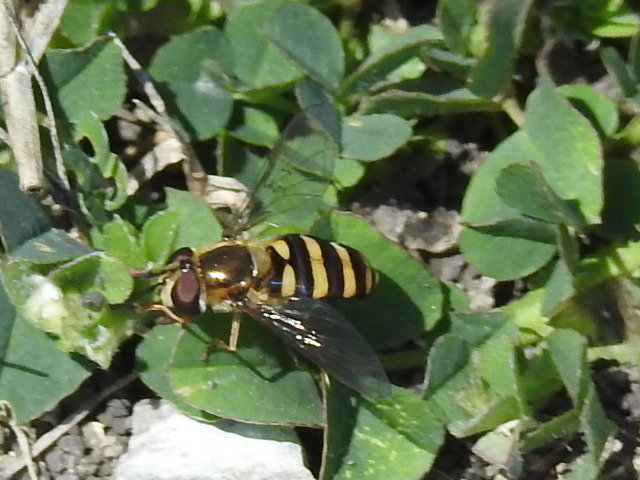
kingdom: Animalia
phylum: Arthropoda
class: Insecta
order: Diptera
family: Syrphidae
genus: Eupeodes
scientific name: Eupeodes
